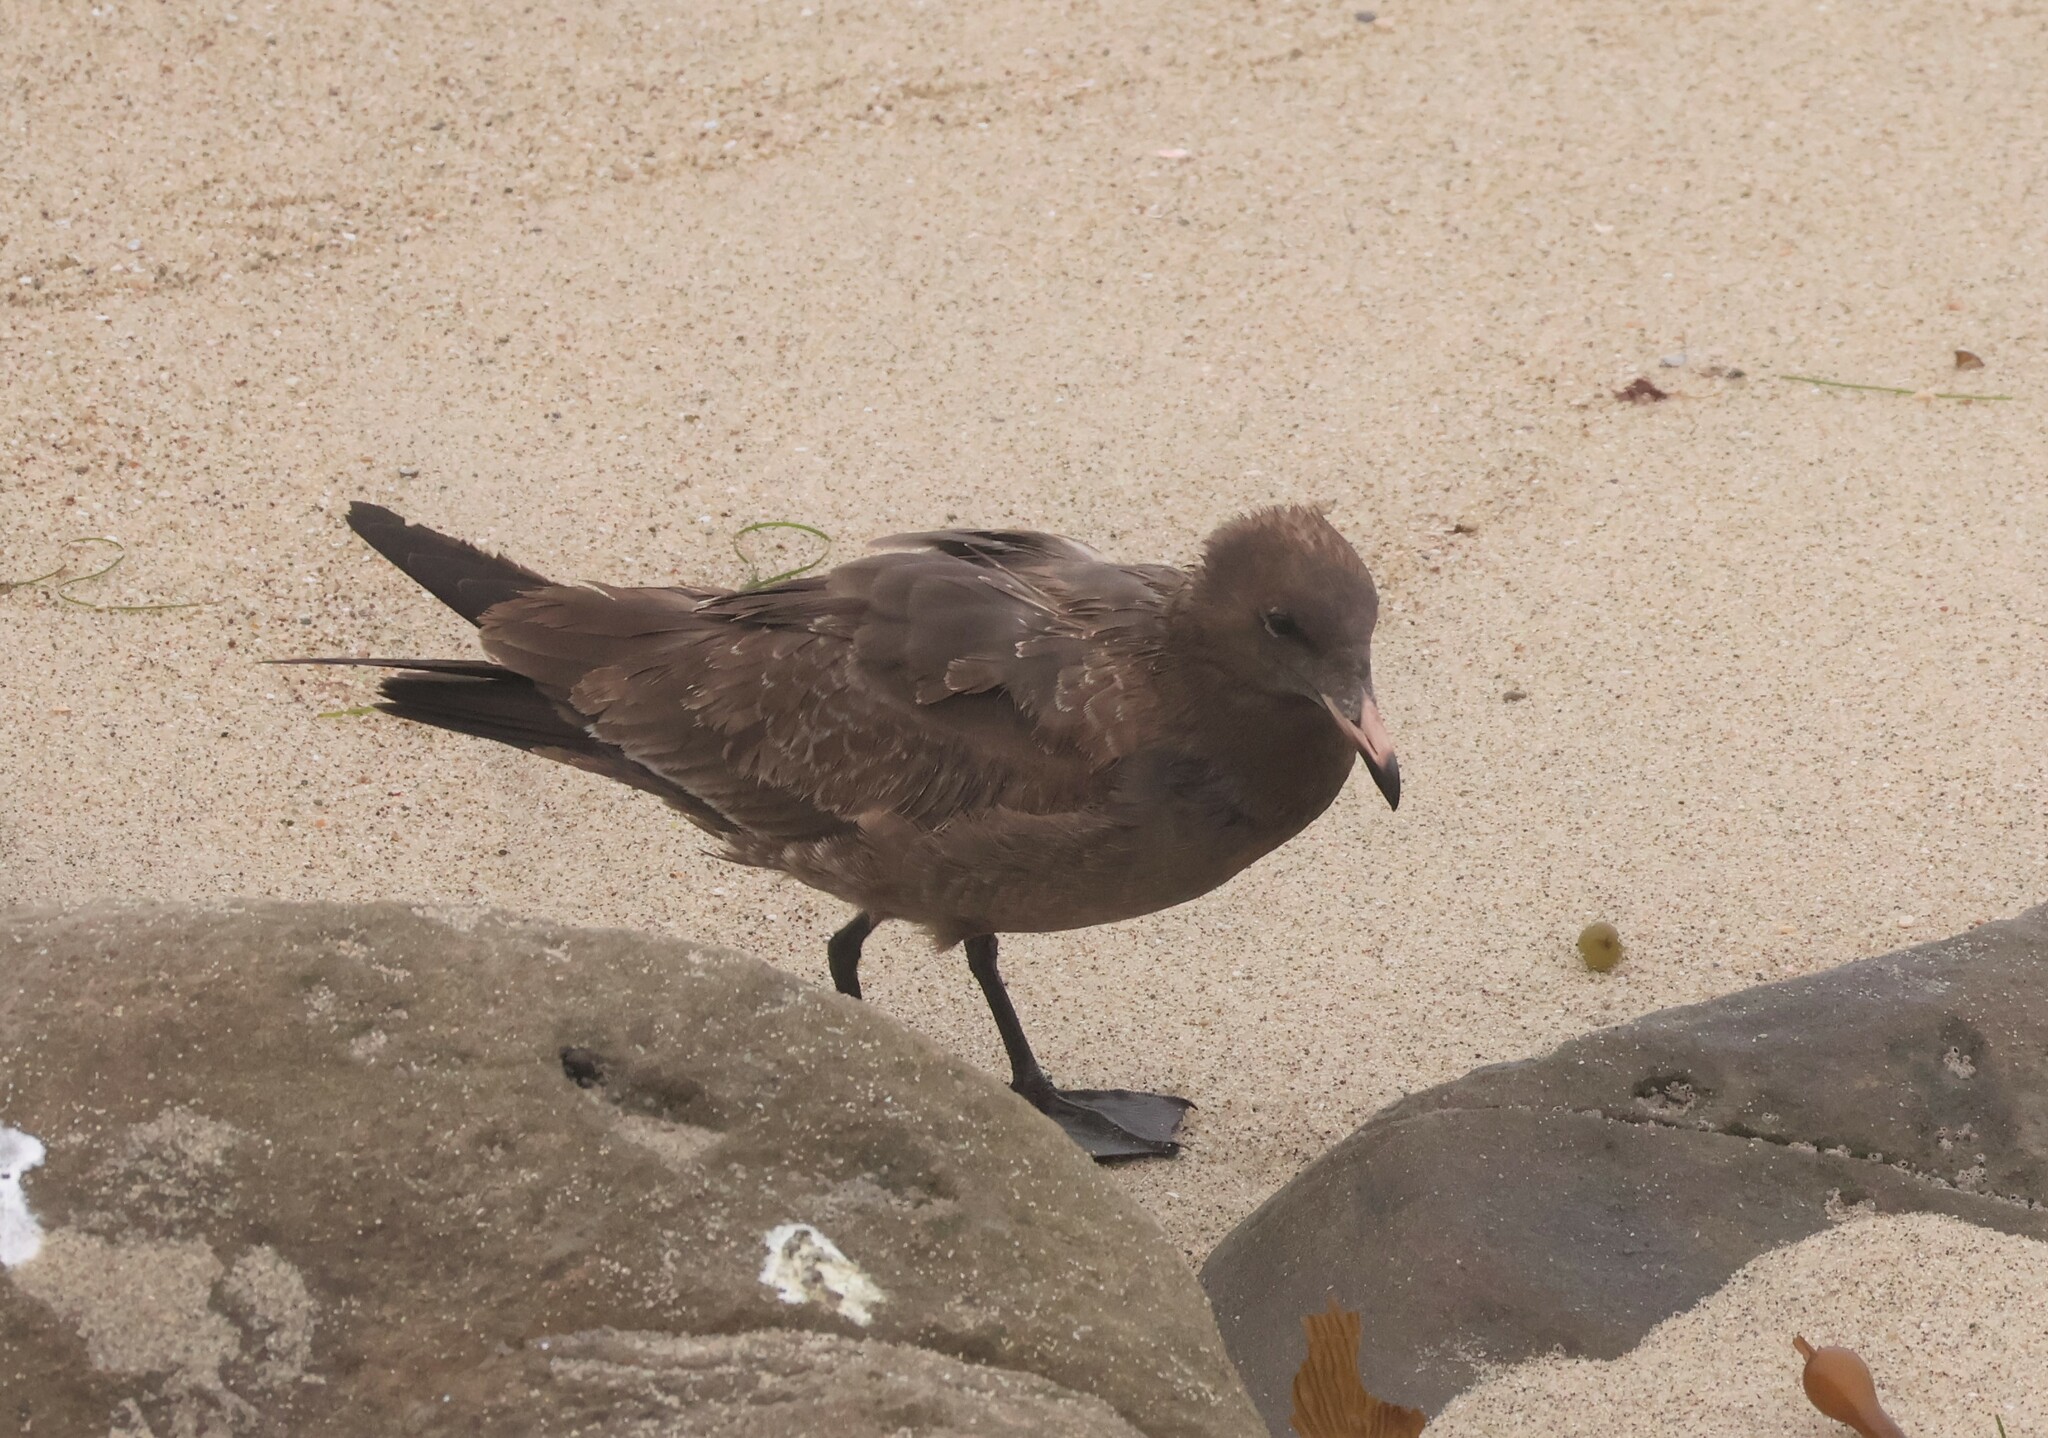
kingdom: Animalia
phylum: Chordata
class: Aves
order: Charadriiformes
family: Laridae
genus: Larus
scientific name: Larus heermanni
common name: Heermann's gull
